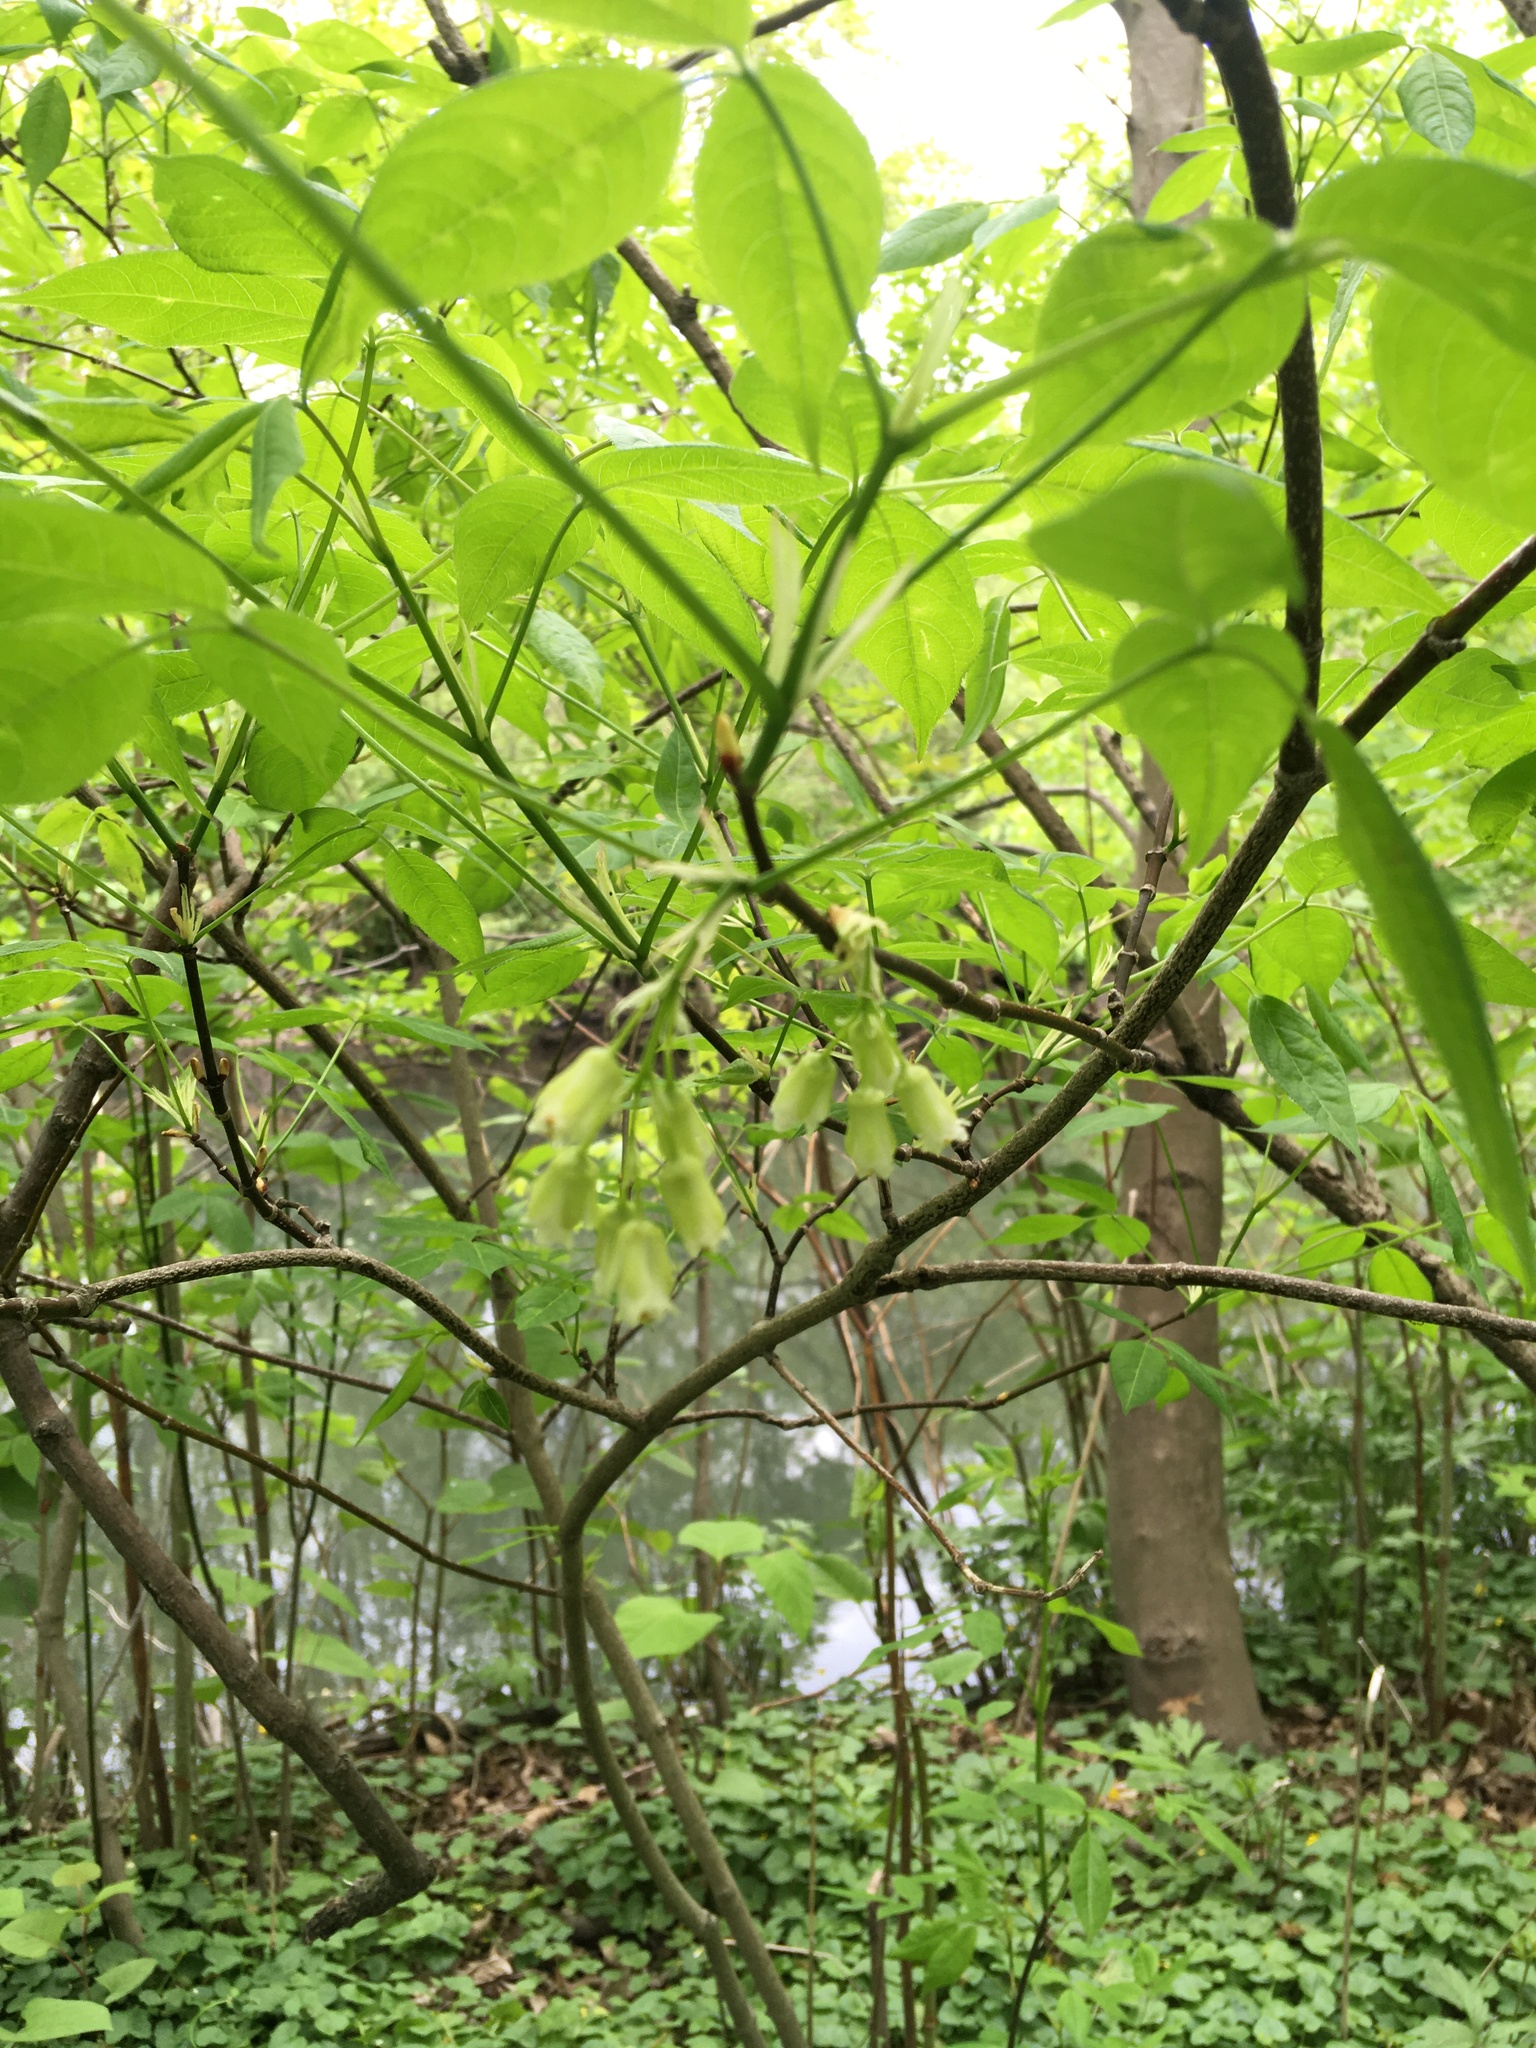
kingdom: Plantae
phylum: Tracheophyta
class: Magnoliopsida
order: Crossosomatales
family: Staphyleaceae
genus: Staphylea
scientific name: Staphylea trifolia
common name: American bladdernut
